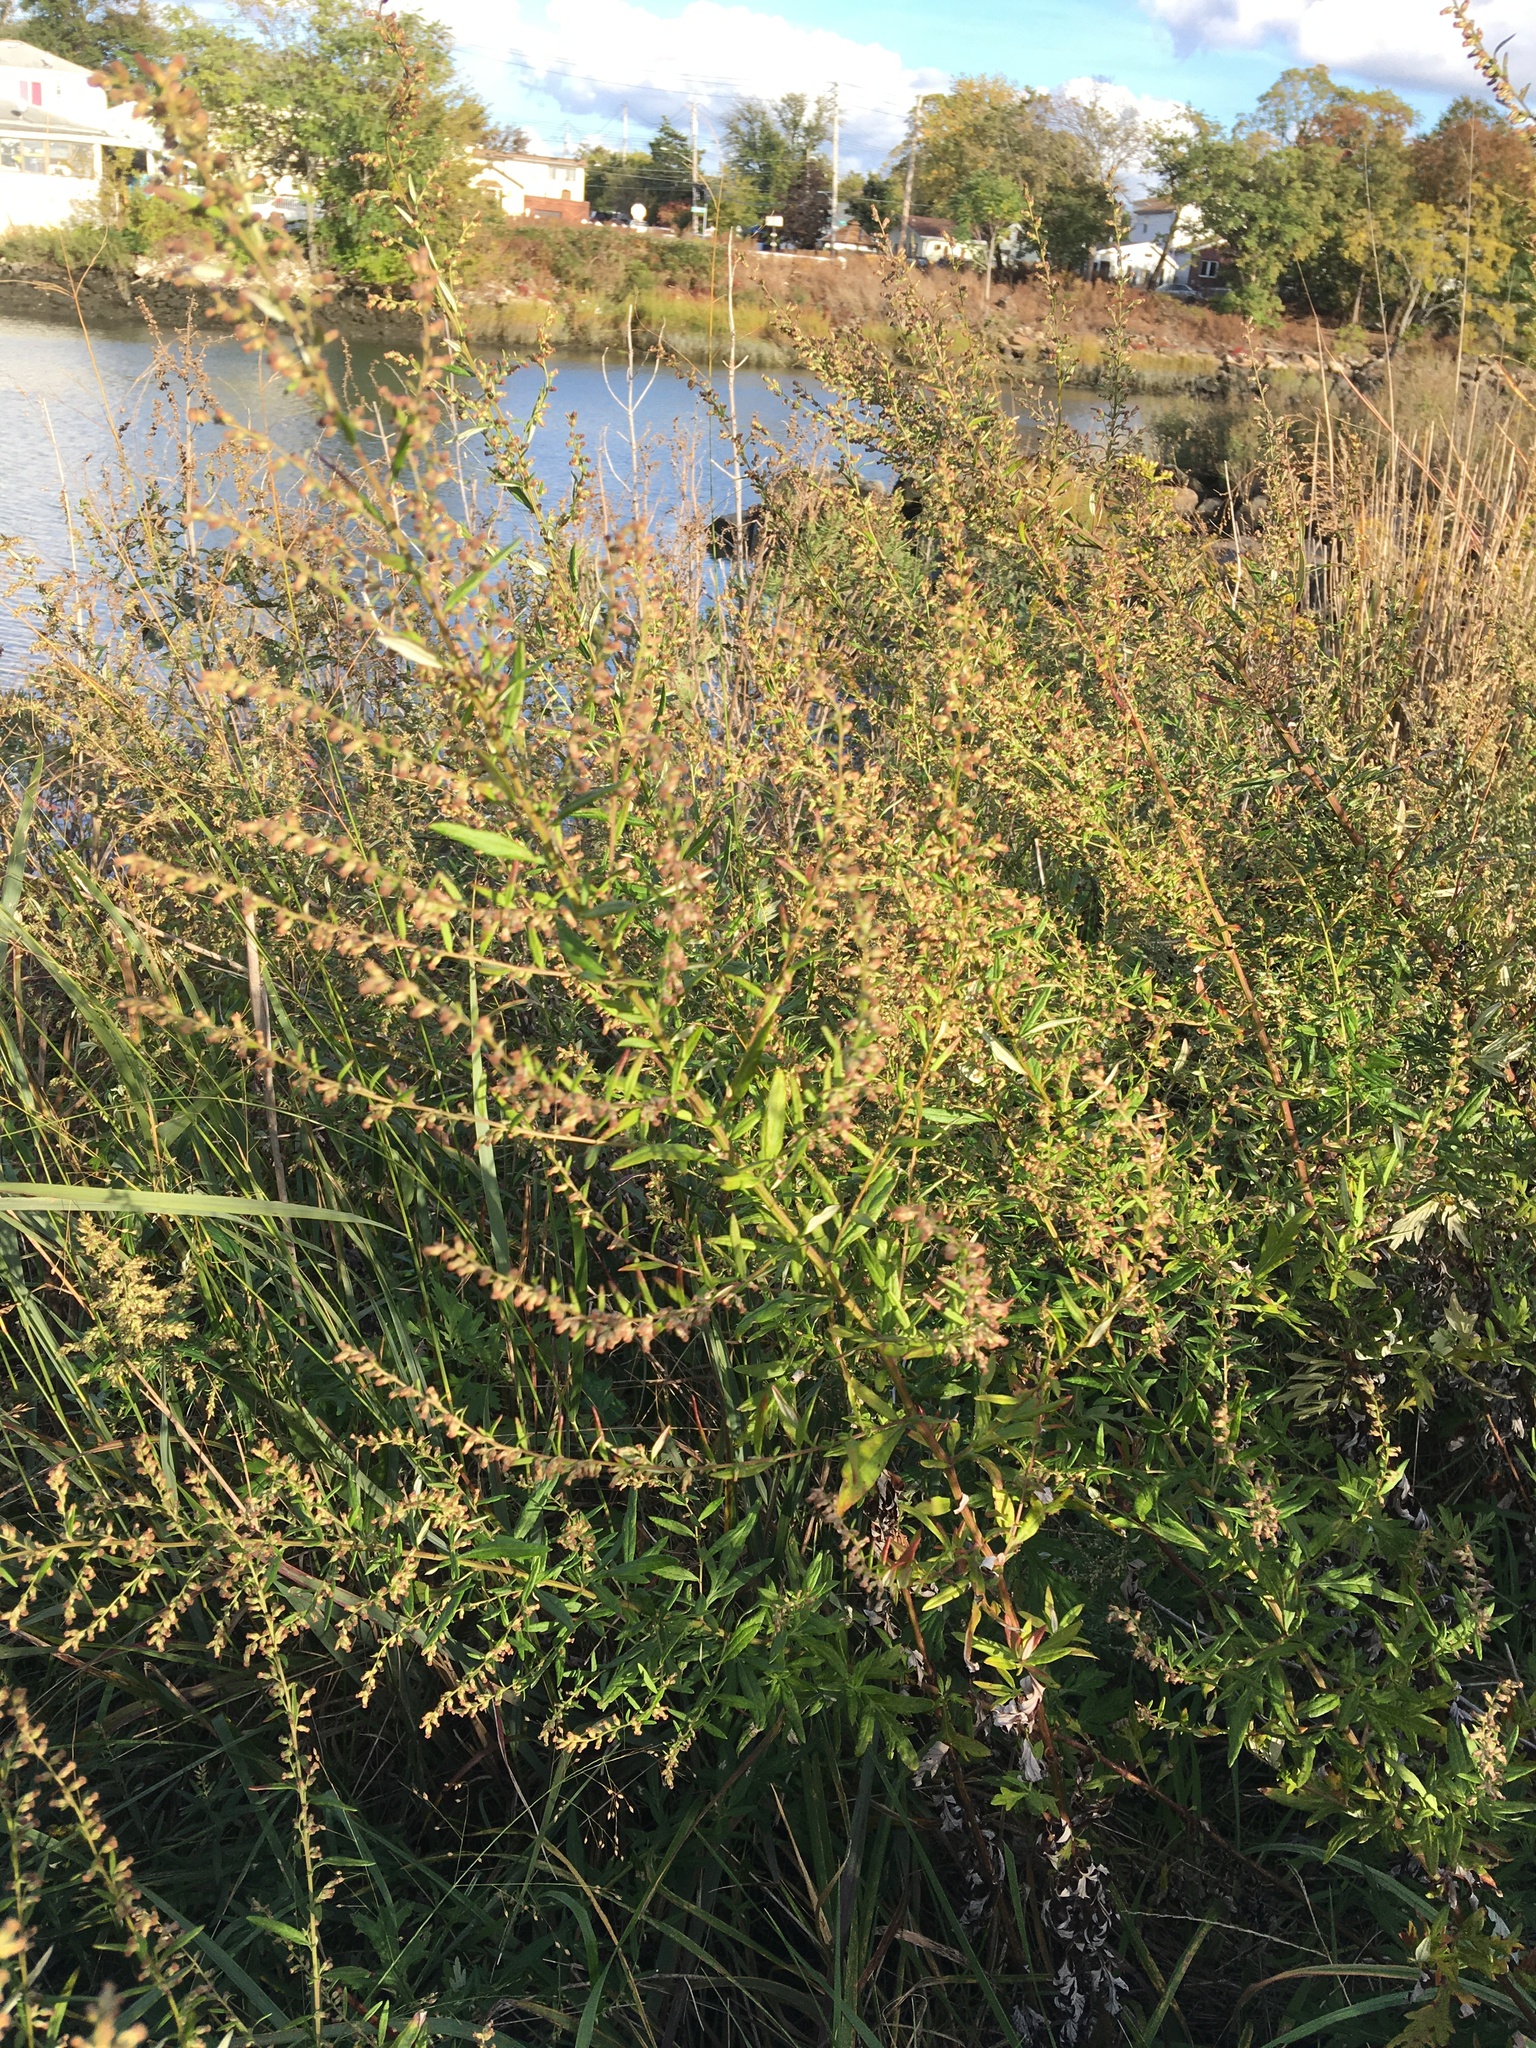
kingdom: Plantae
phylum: Tracheophyta
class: Magnoliopsida
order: Asterales
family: Asteraceae
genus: Artemisia
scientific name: Artemisia vulgaris
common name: Mugwort
